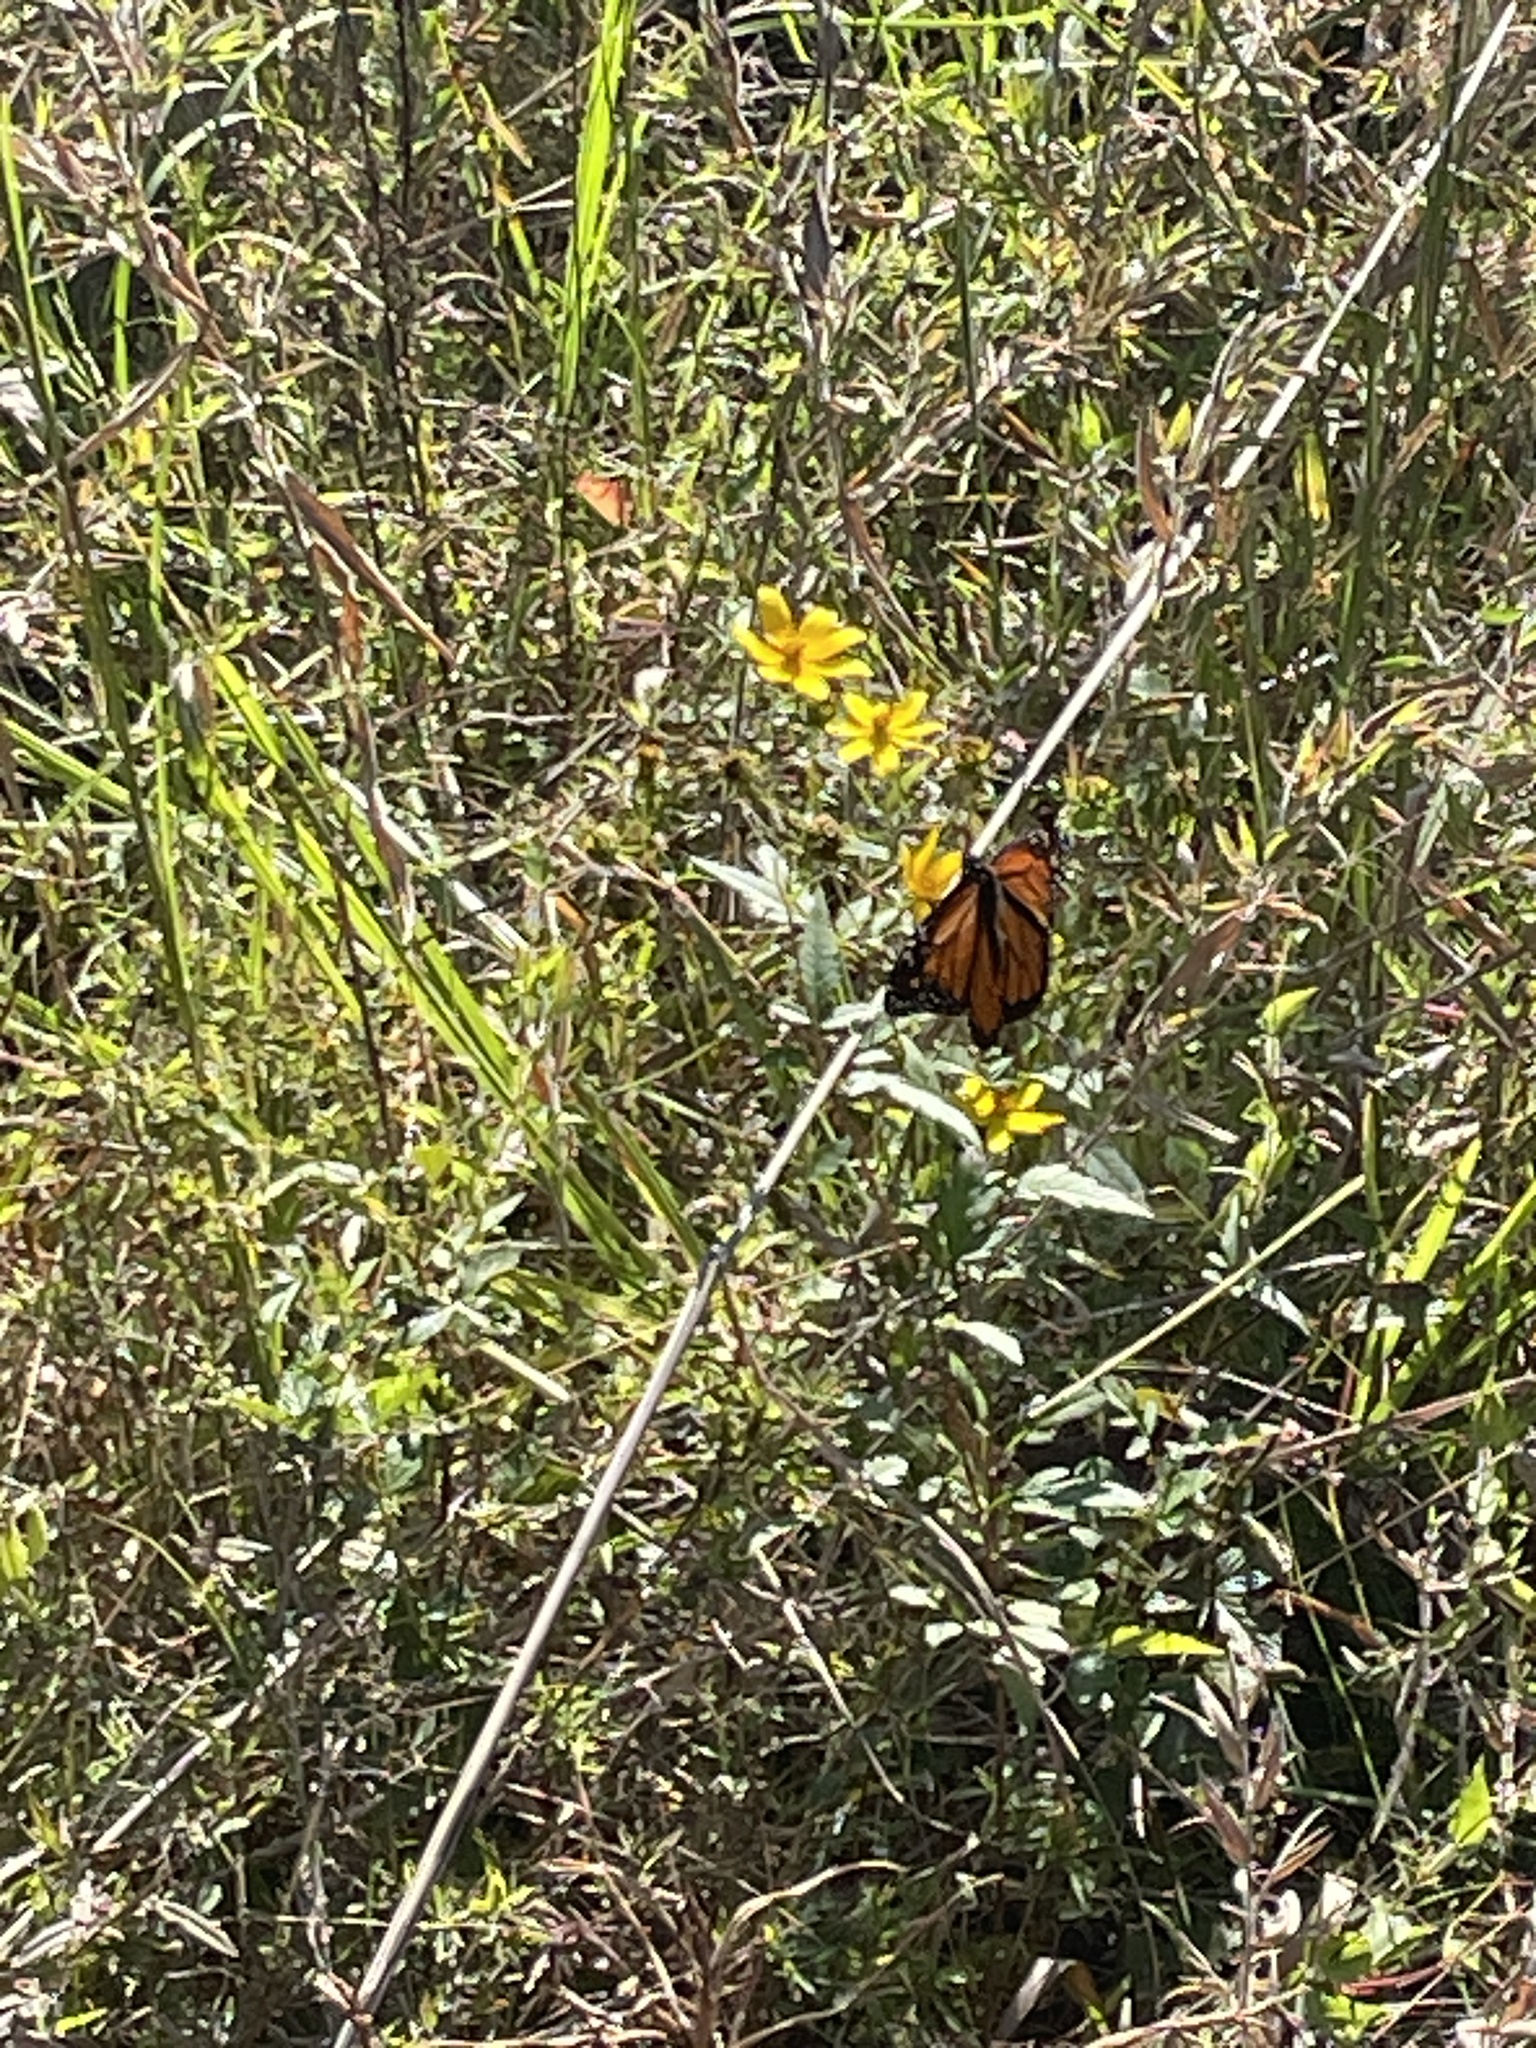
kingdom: Animalia
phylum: Arthropoda
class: Insecta
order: Lepidoptera
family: Nymphalidae
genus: Danaus
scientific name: Danaus plexippus
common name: Monarch
